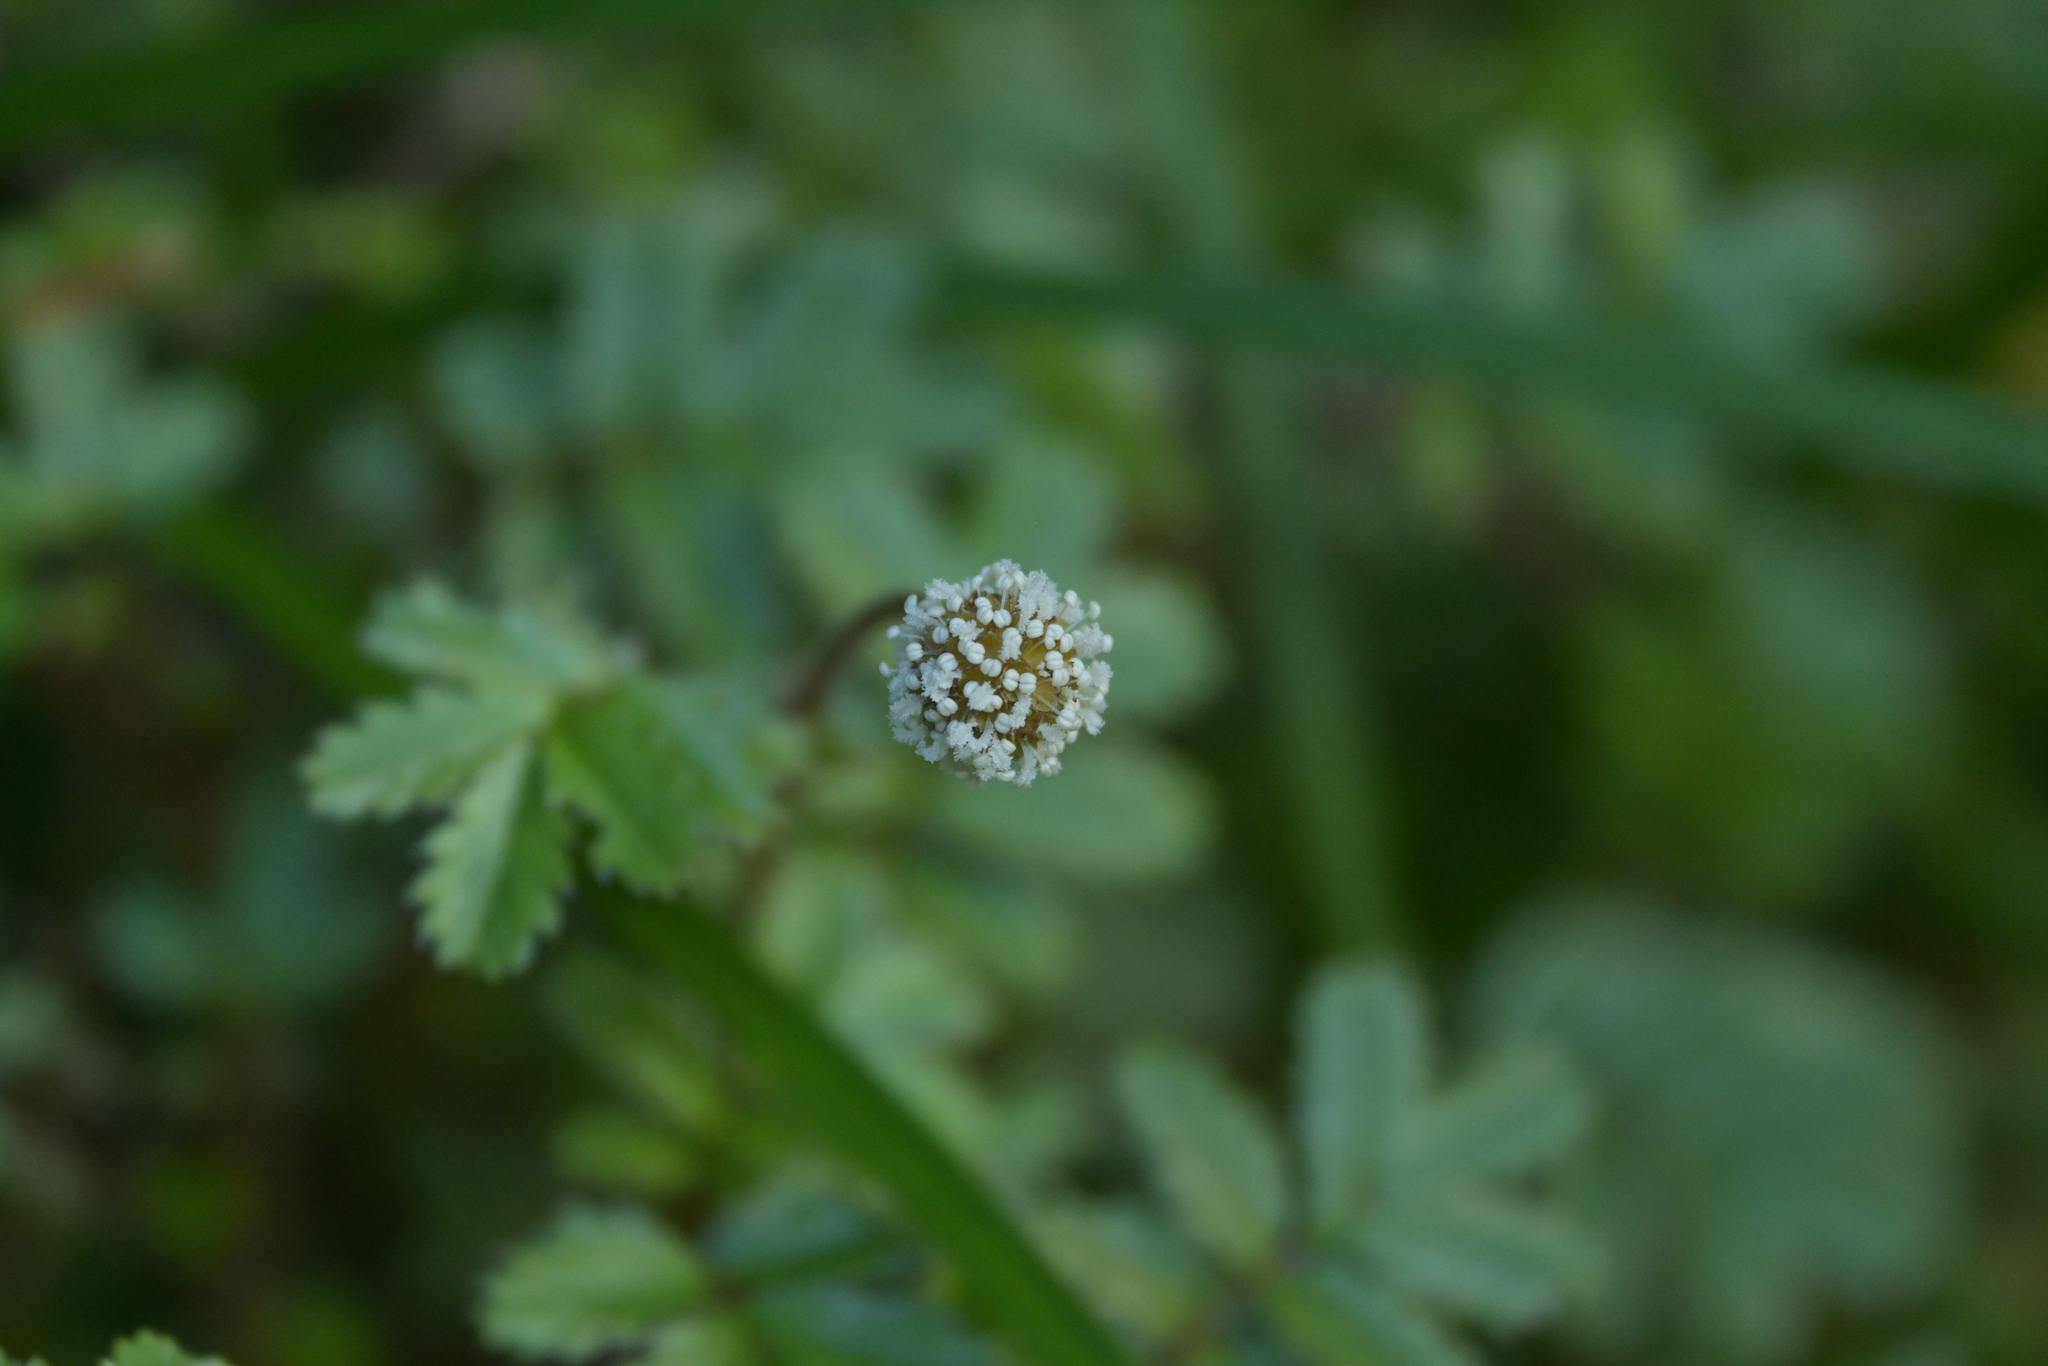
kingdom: Plantae
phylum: Tracheophyta
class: Magnoliopsida
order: Rosales
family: Rosaceae
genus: Acaena
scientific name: Acaena anserinifolia
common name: Bronze pirri-pirri-bur
